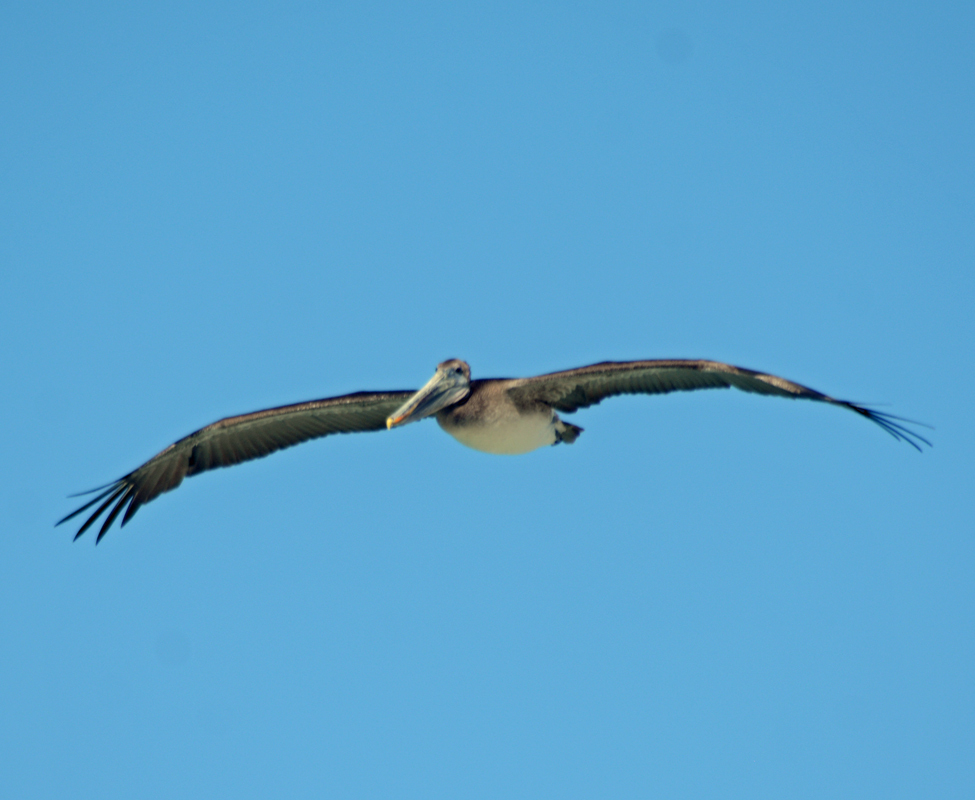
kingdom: Animalia
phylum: Chordata
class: Aves
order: Pelecaniformes
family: Pelecanidae
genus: Pelecanus
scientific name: Pelecanus occidentalis
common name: Brown pelican
